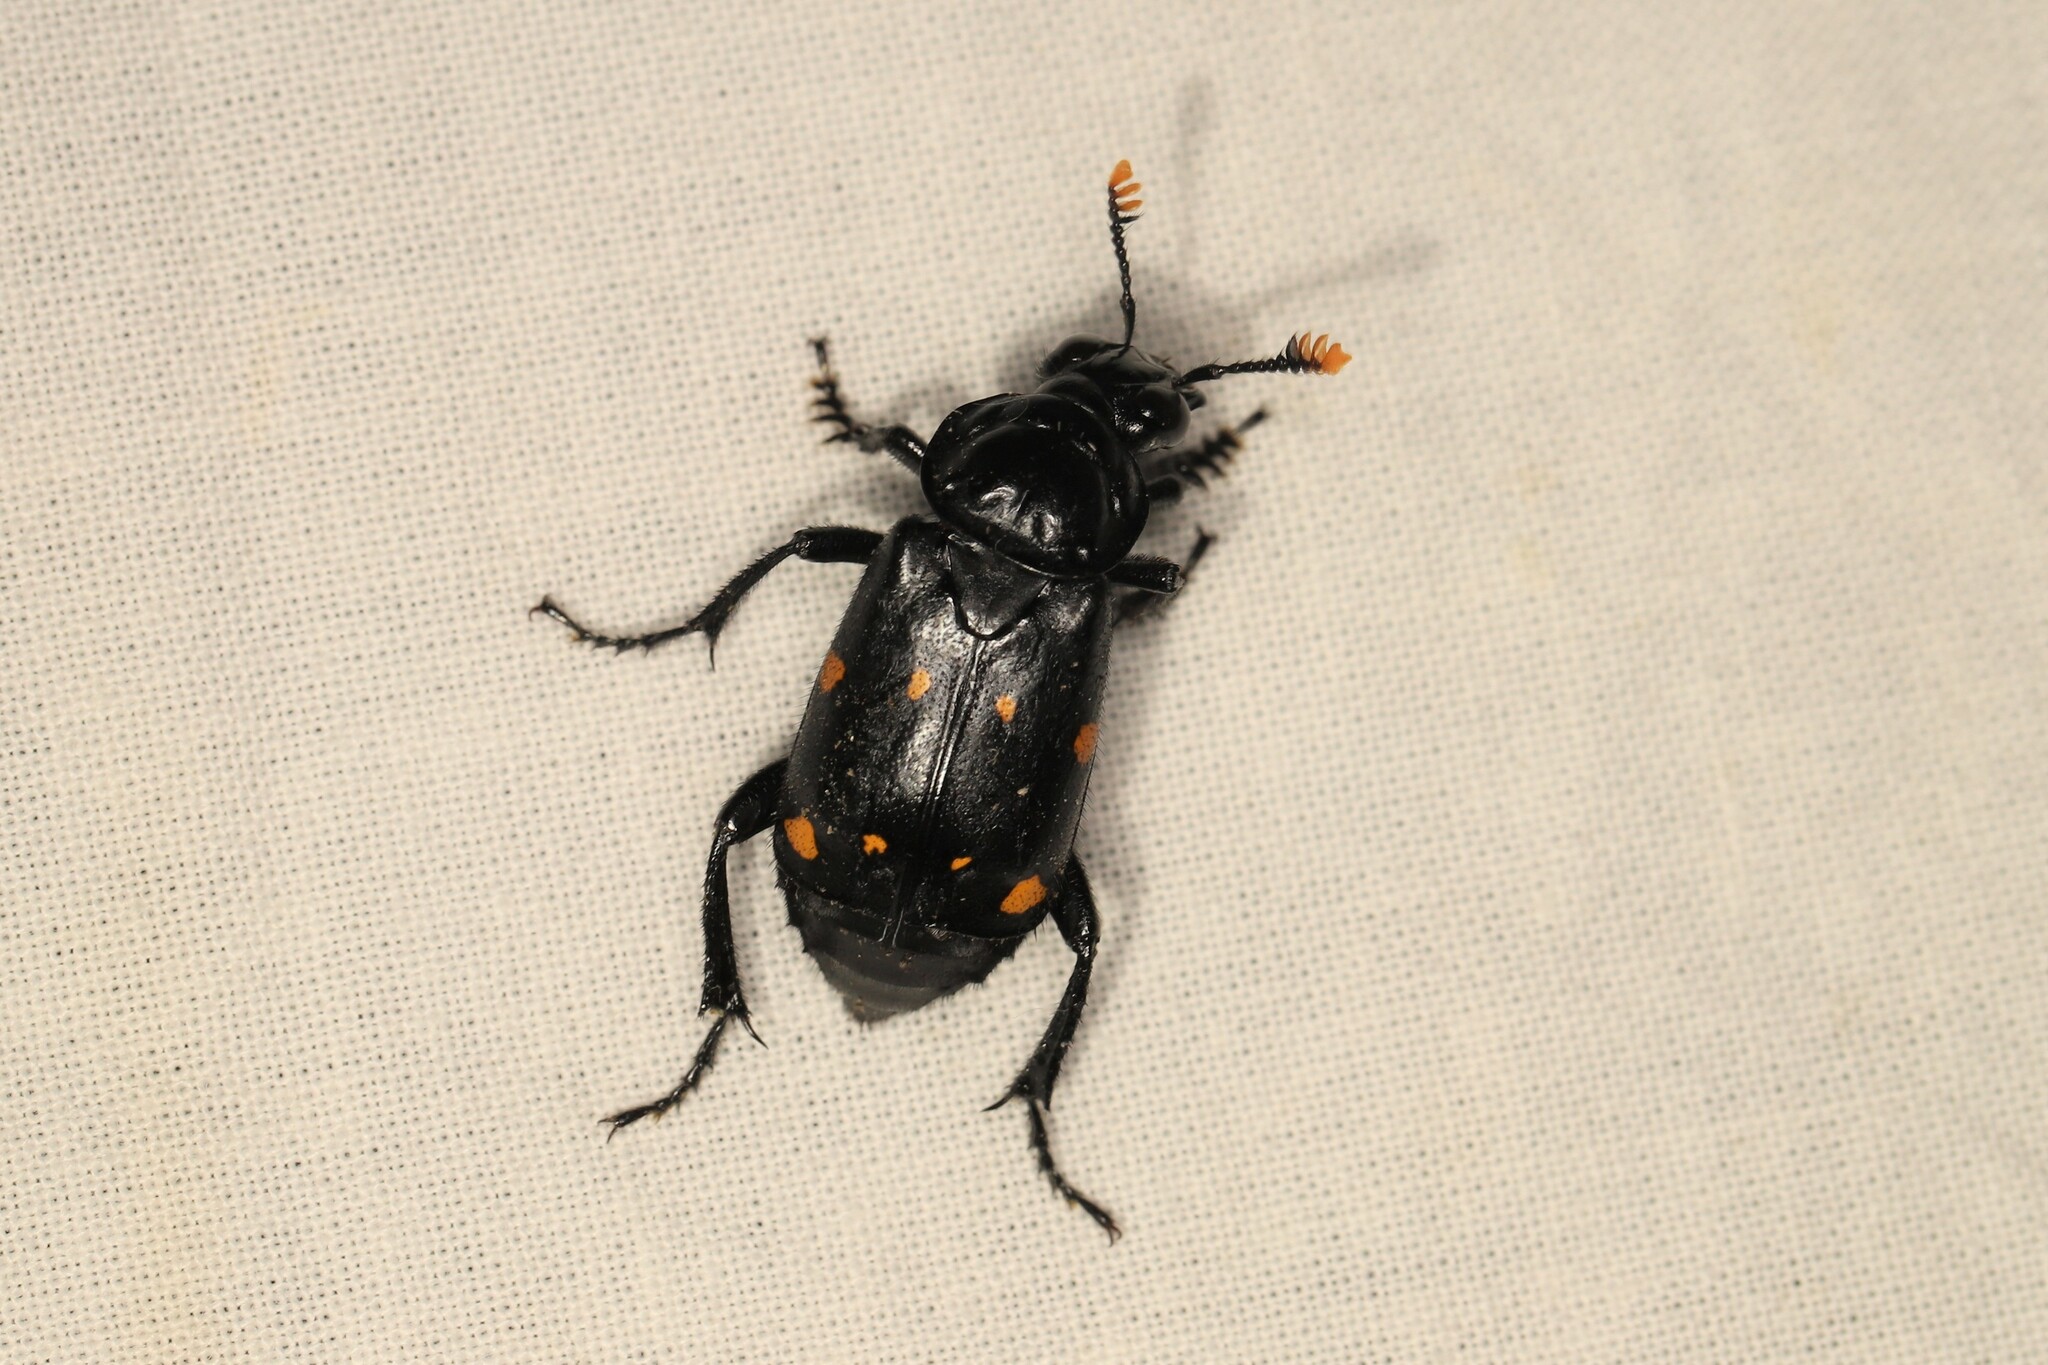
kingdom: Animalia
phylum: Arthropoda
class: Insecta
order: Coleoptera
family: Staphylinidae
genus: Nicrophorus
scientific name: Nicrophorus didymus
